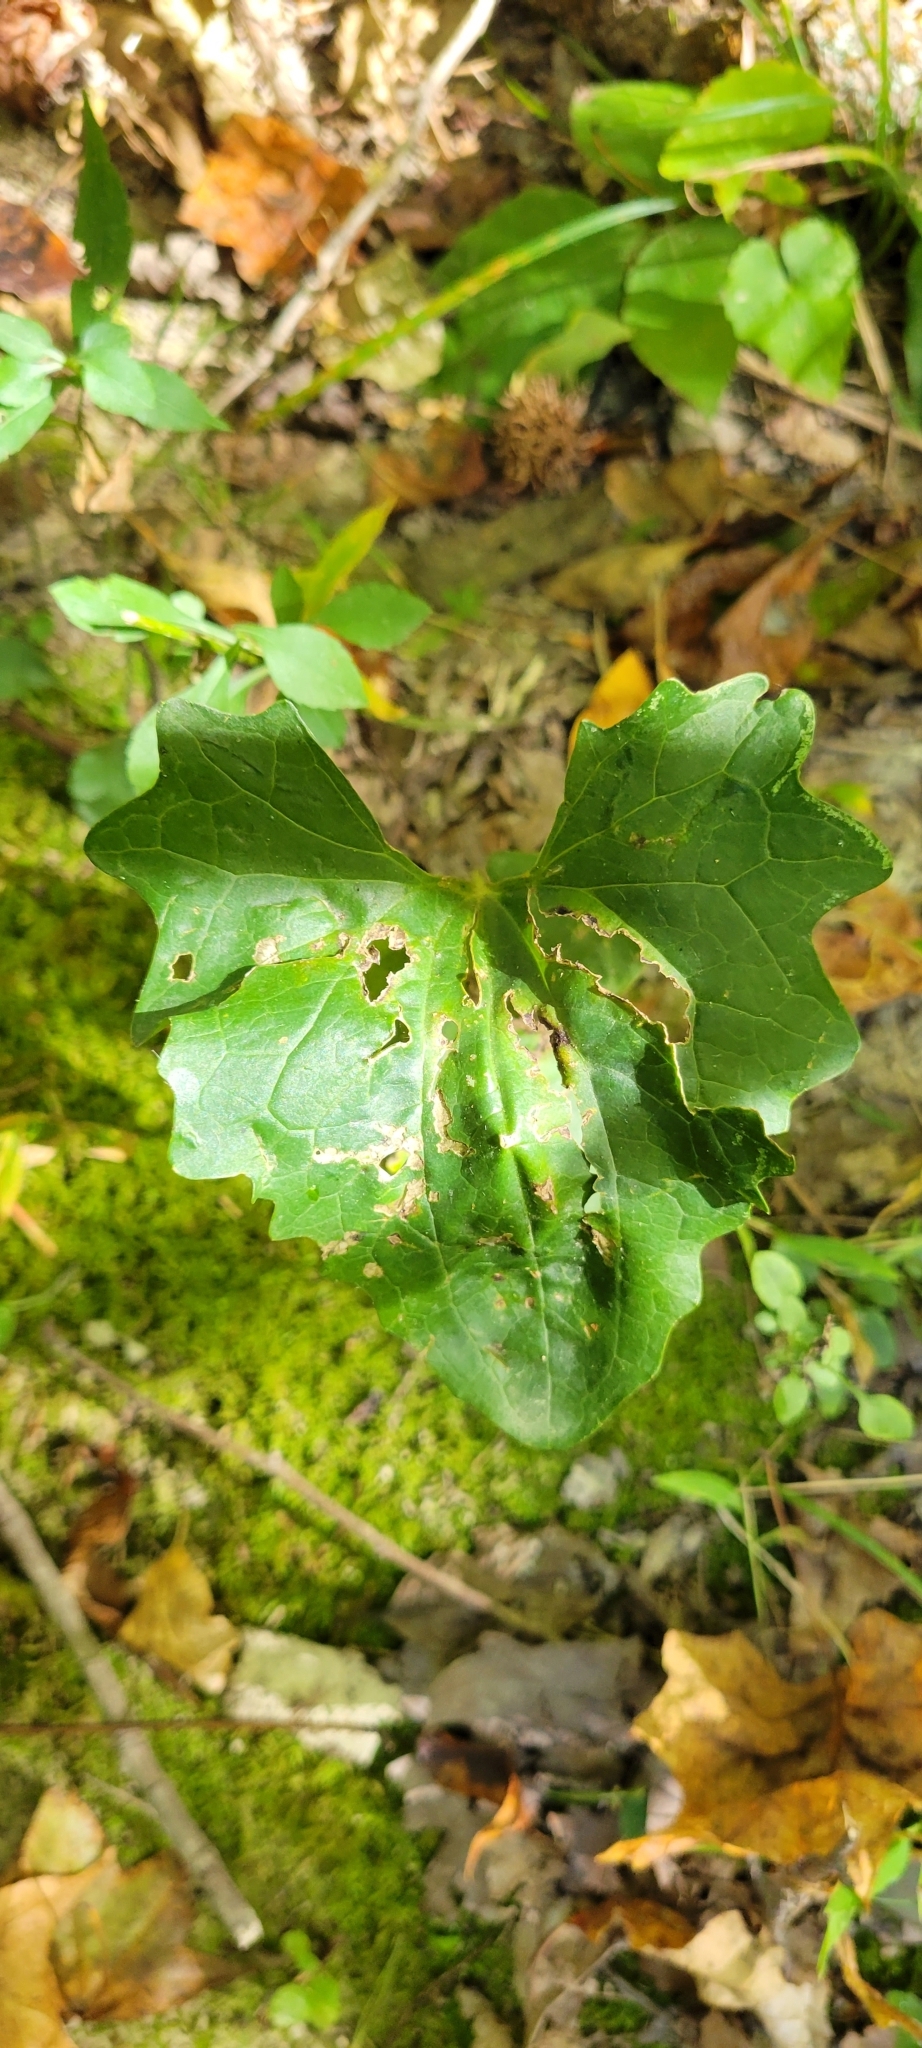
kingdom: Plantae
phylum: Tracheophyta
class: Magnoliopsida
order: Asterales
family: Asteraceae
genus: Arnoglossum
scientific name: Arnoglossum atriplicifolium
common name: Pale indian-plantain
